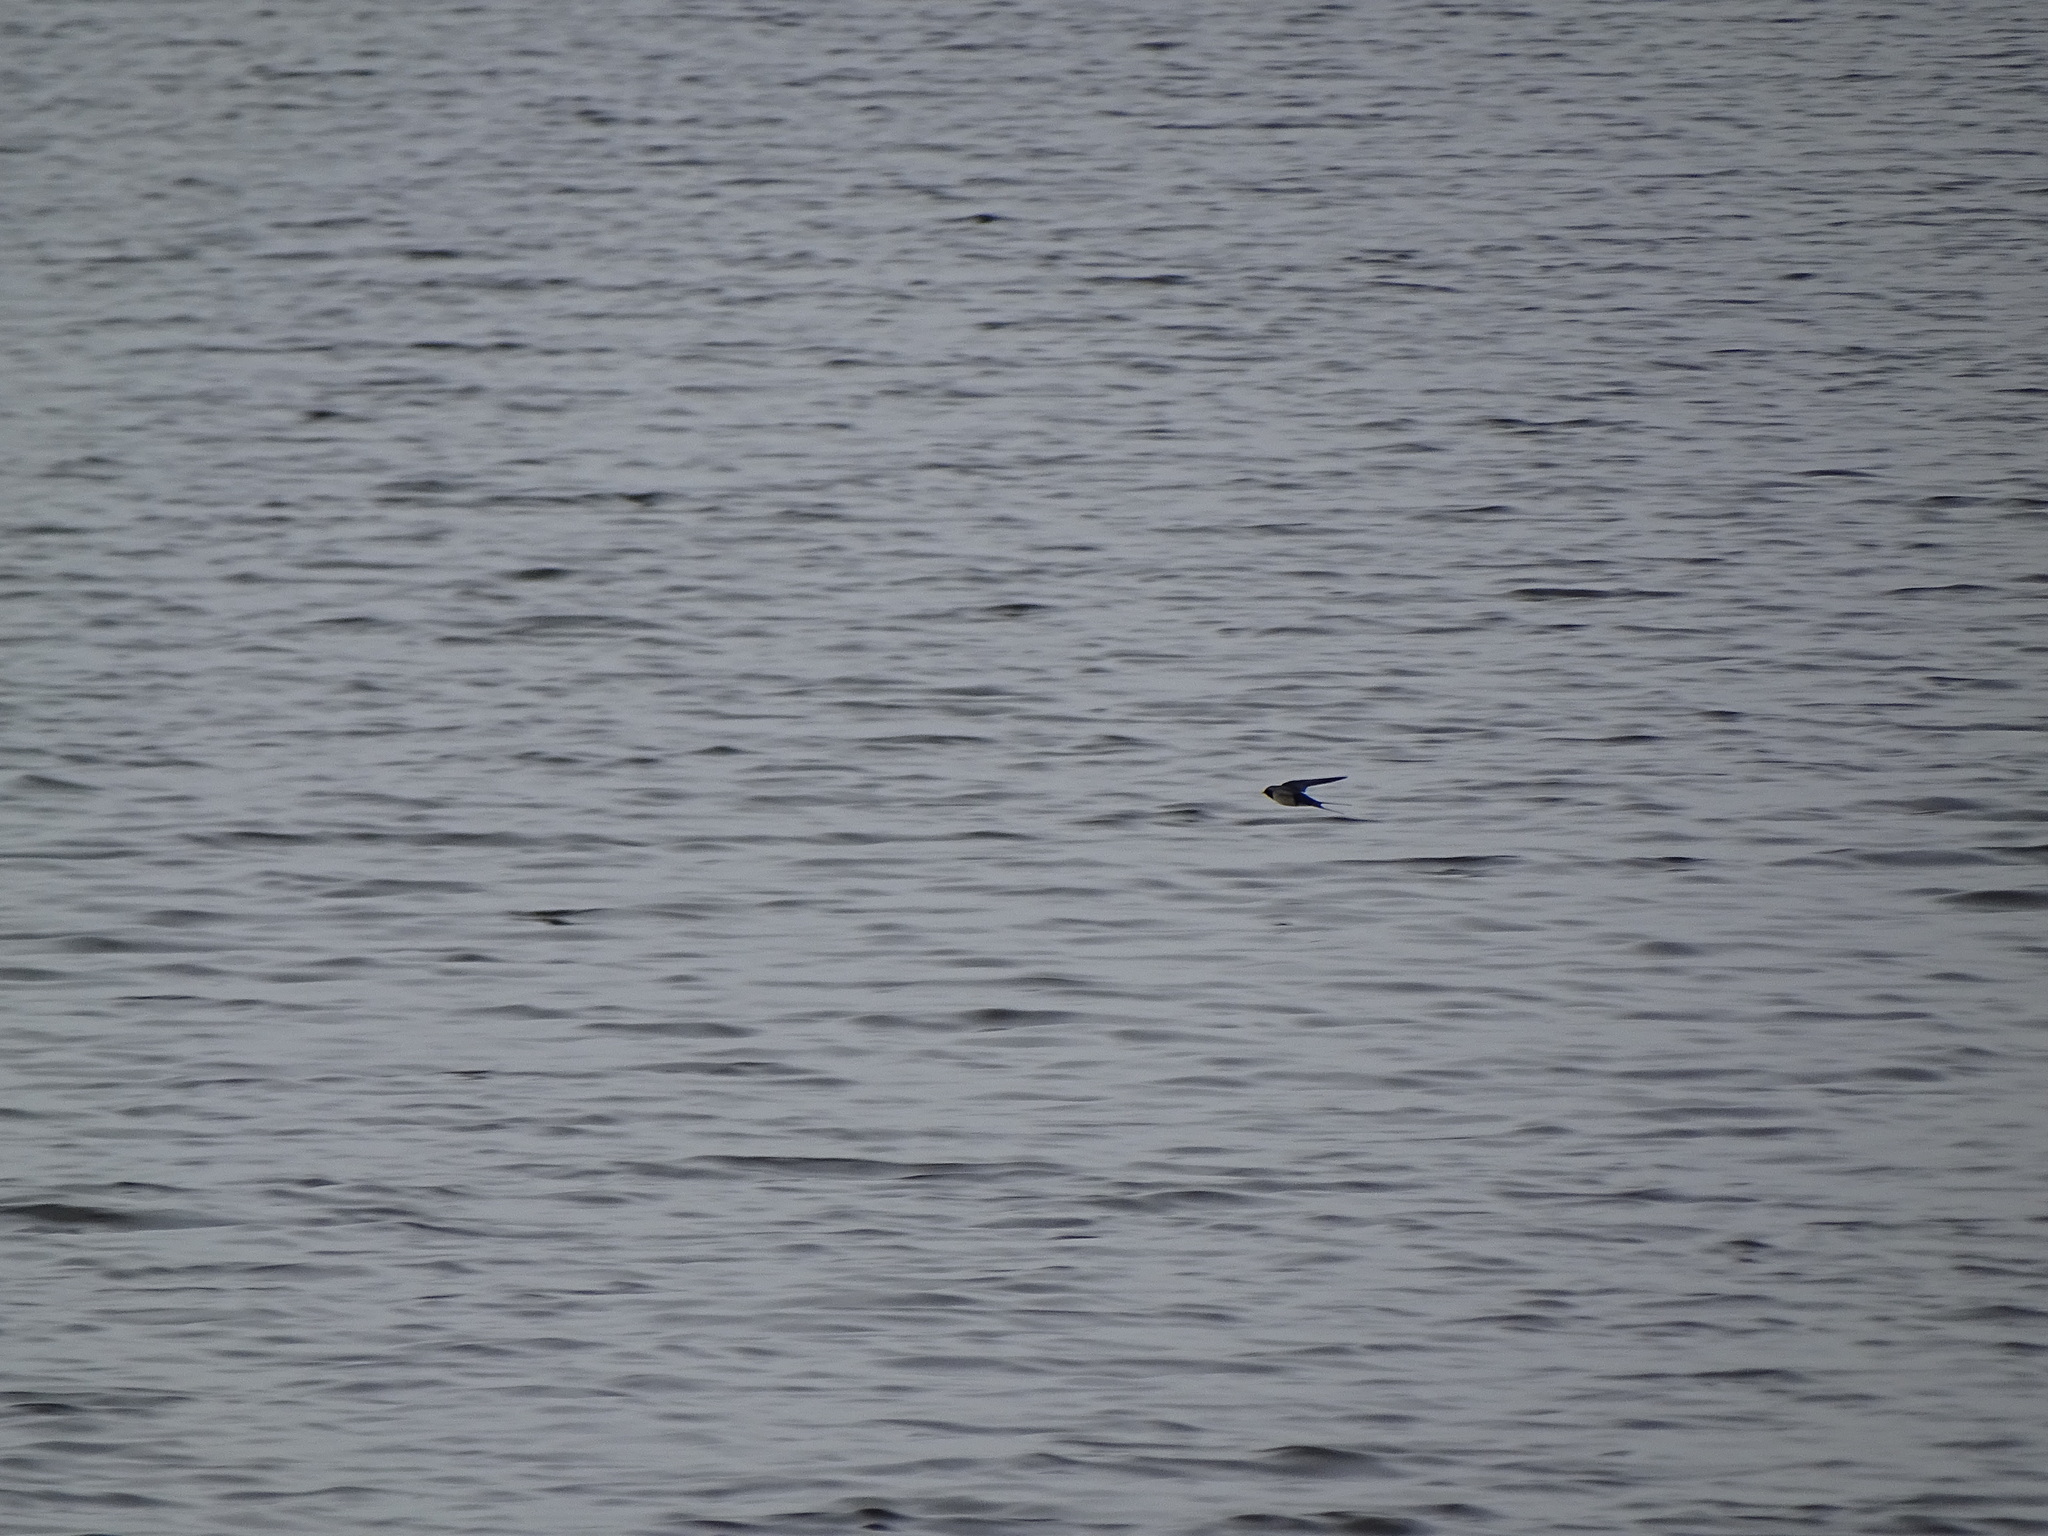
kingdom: Animalia
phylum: Chordata
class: Aves
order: Passeriformes
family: Hirundinidae
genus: Hirundo
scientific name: Hirundo rustica
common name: Barn swallow
